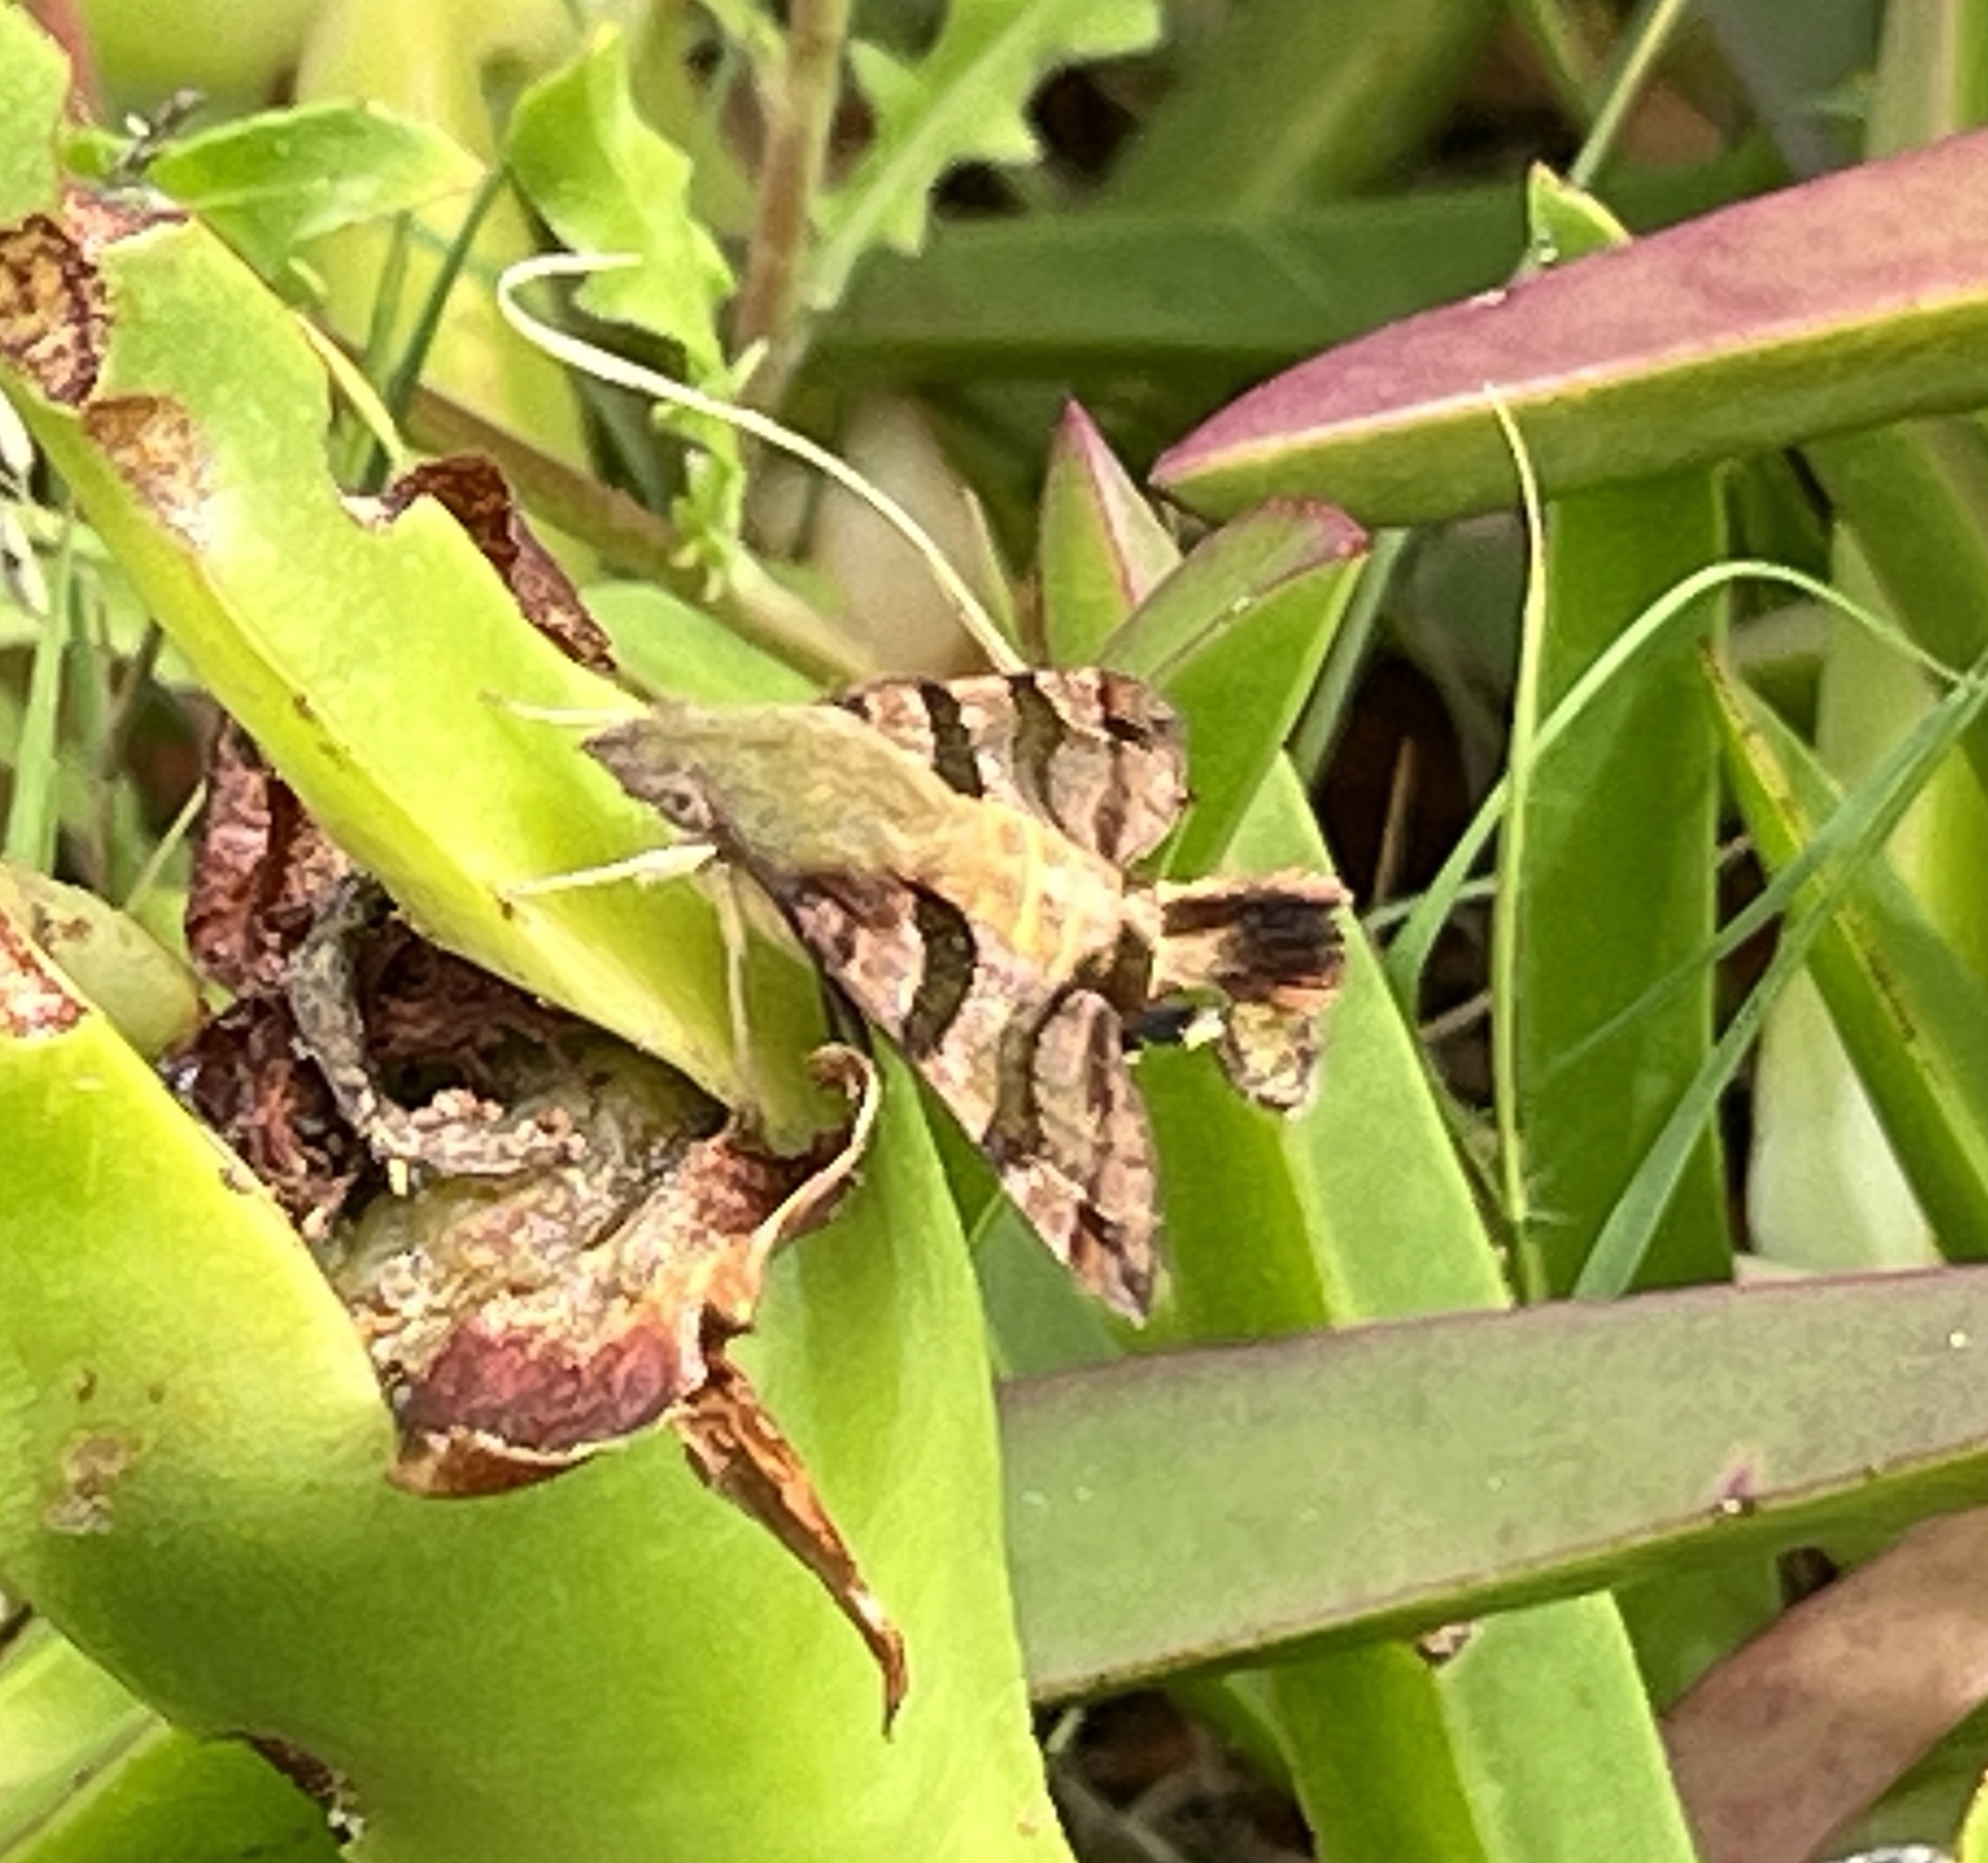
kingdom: Animalia
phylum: Arthropoda
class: Insecta
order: Lepidoptera
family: Sphingidae
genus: Macroglossum
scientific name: Macroglossum trochilus
